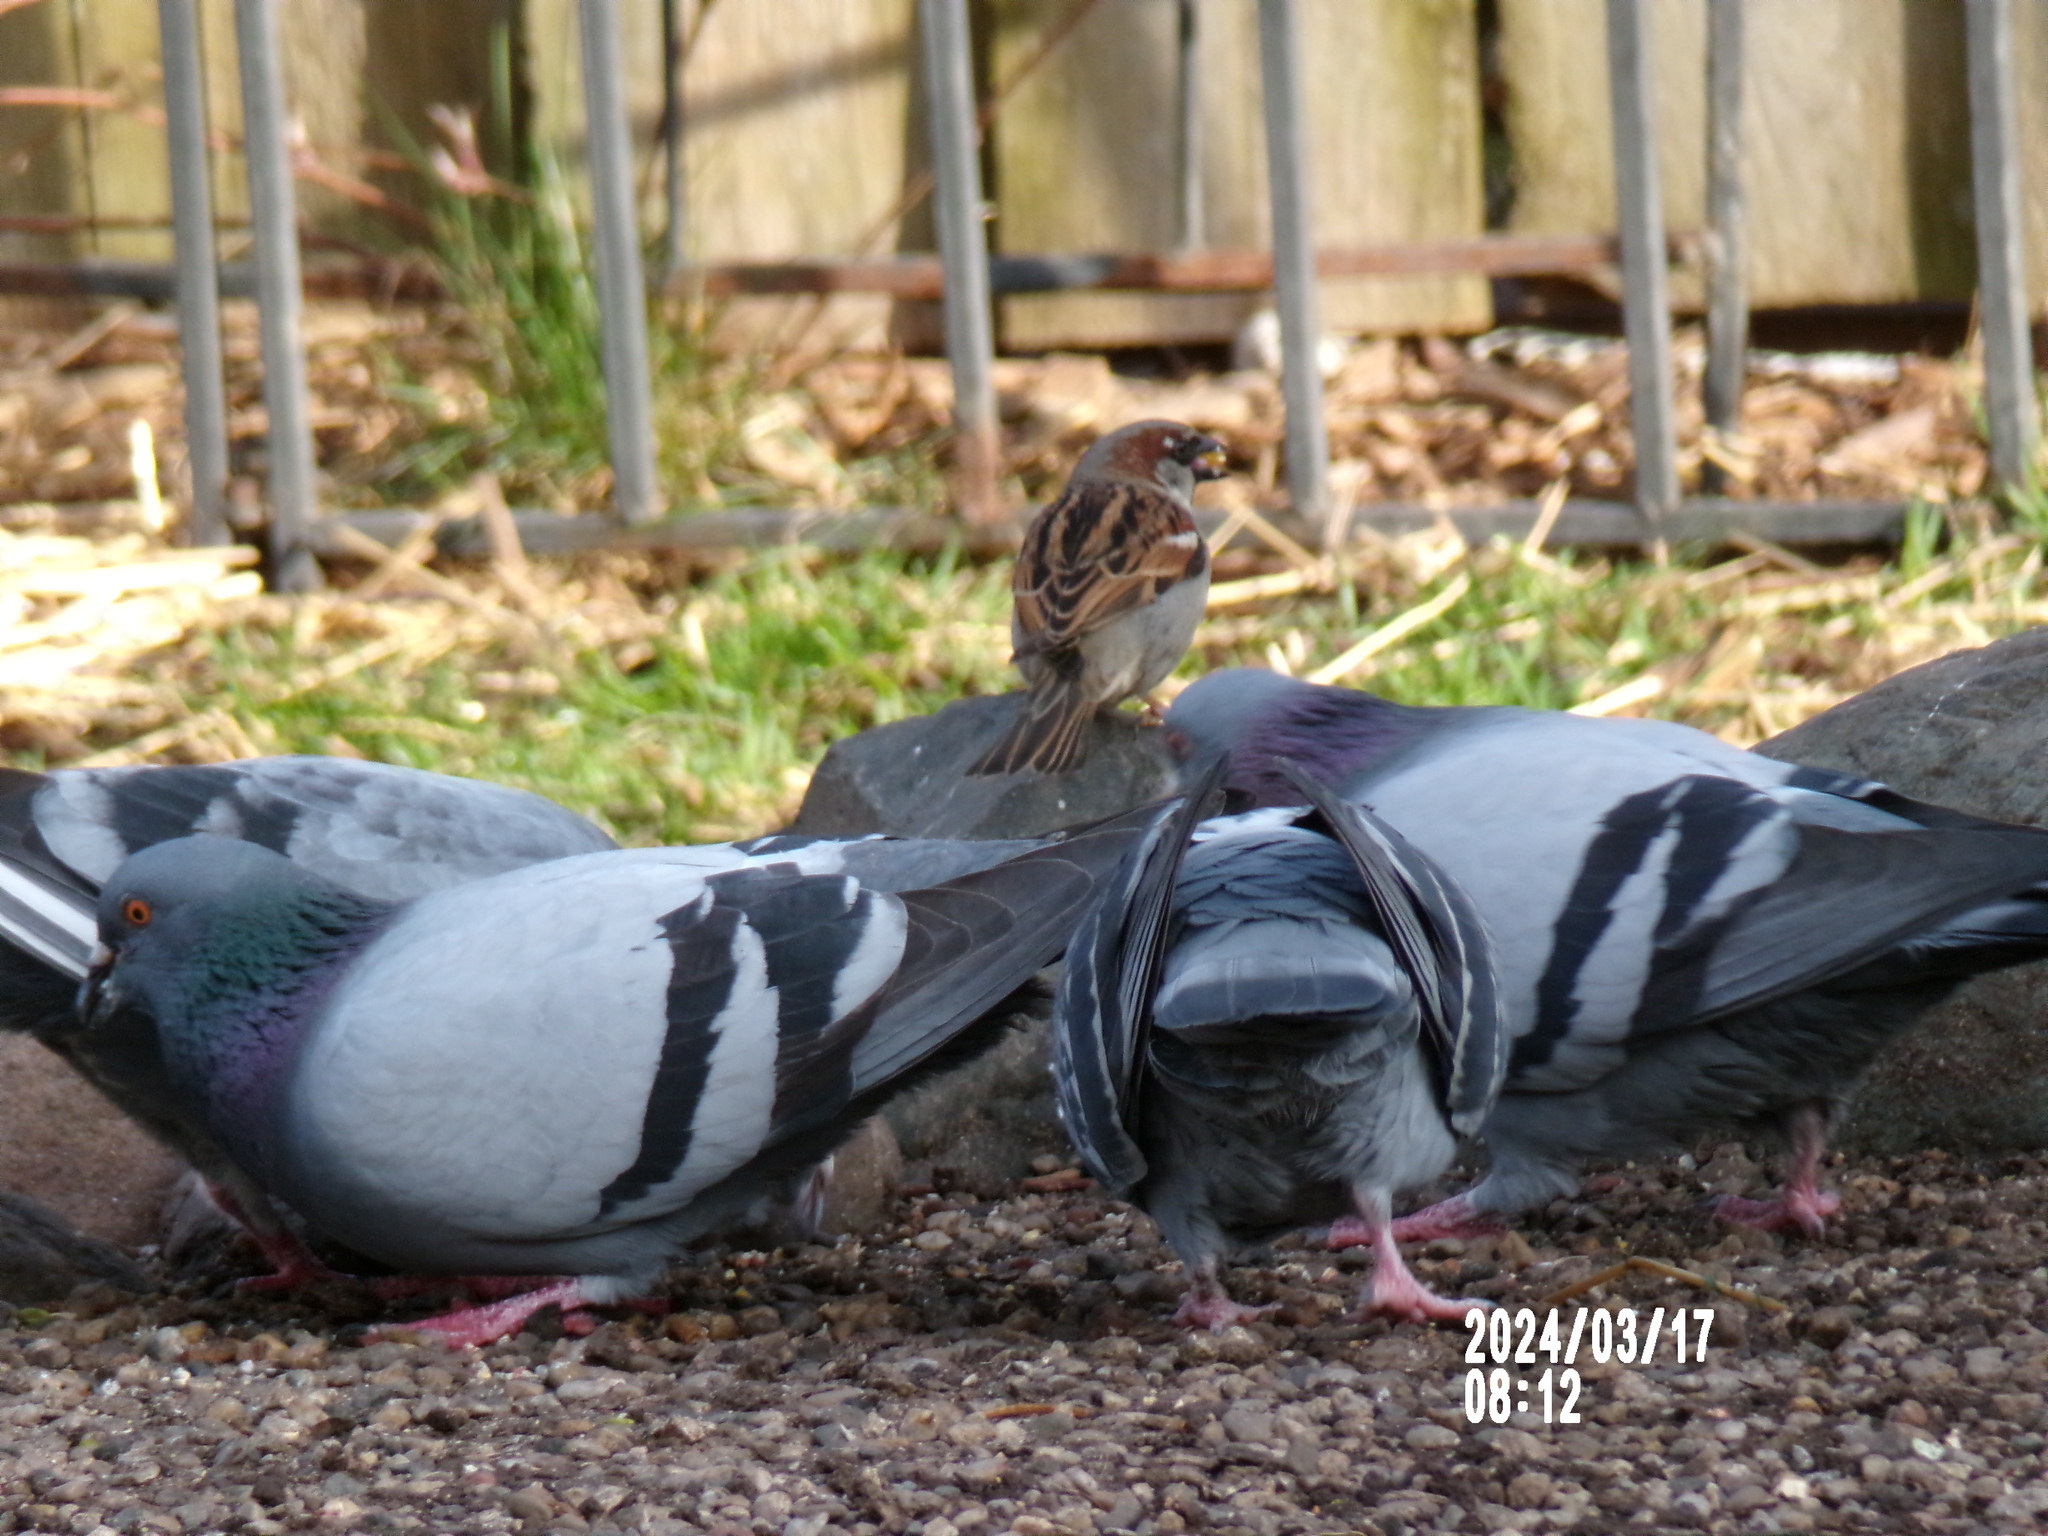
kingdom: Animalia
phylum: Chordata
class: Aves
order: Columbiformes
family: Columbidae
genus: Columba
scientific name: Columba livia
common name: Rock pigeon
